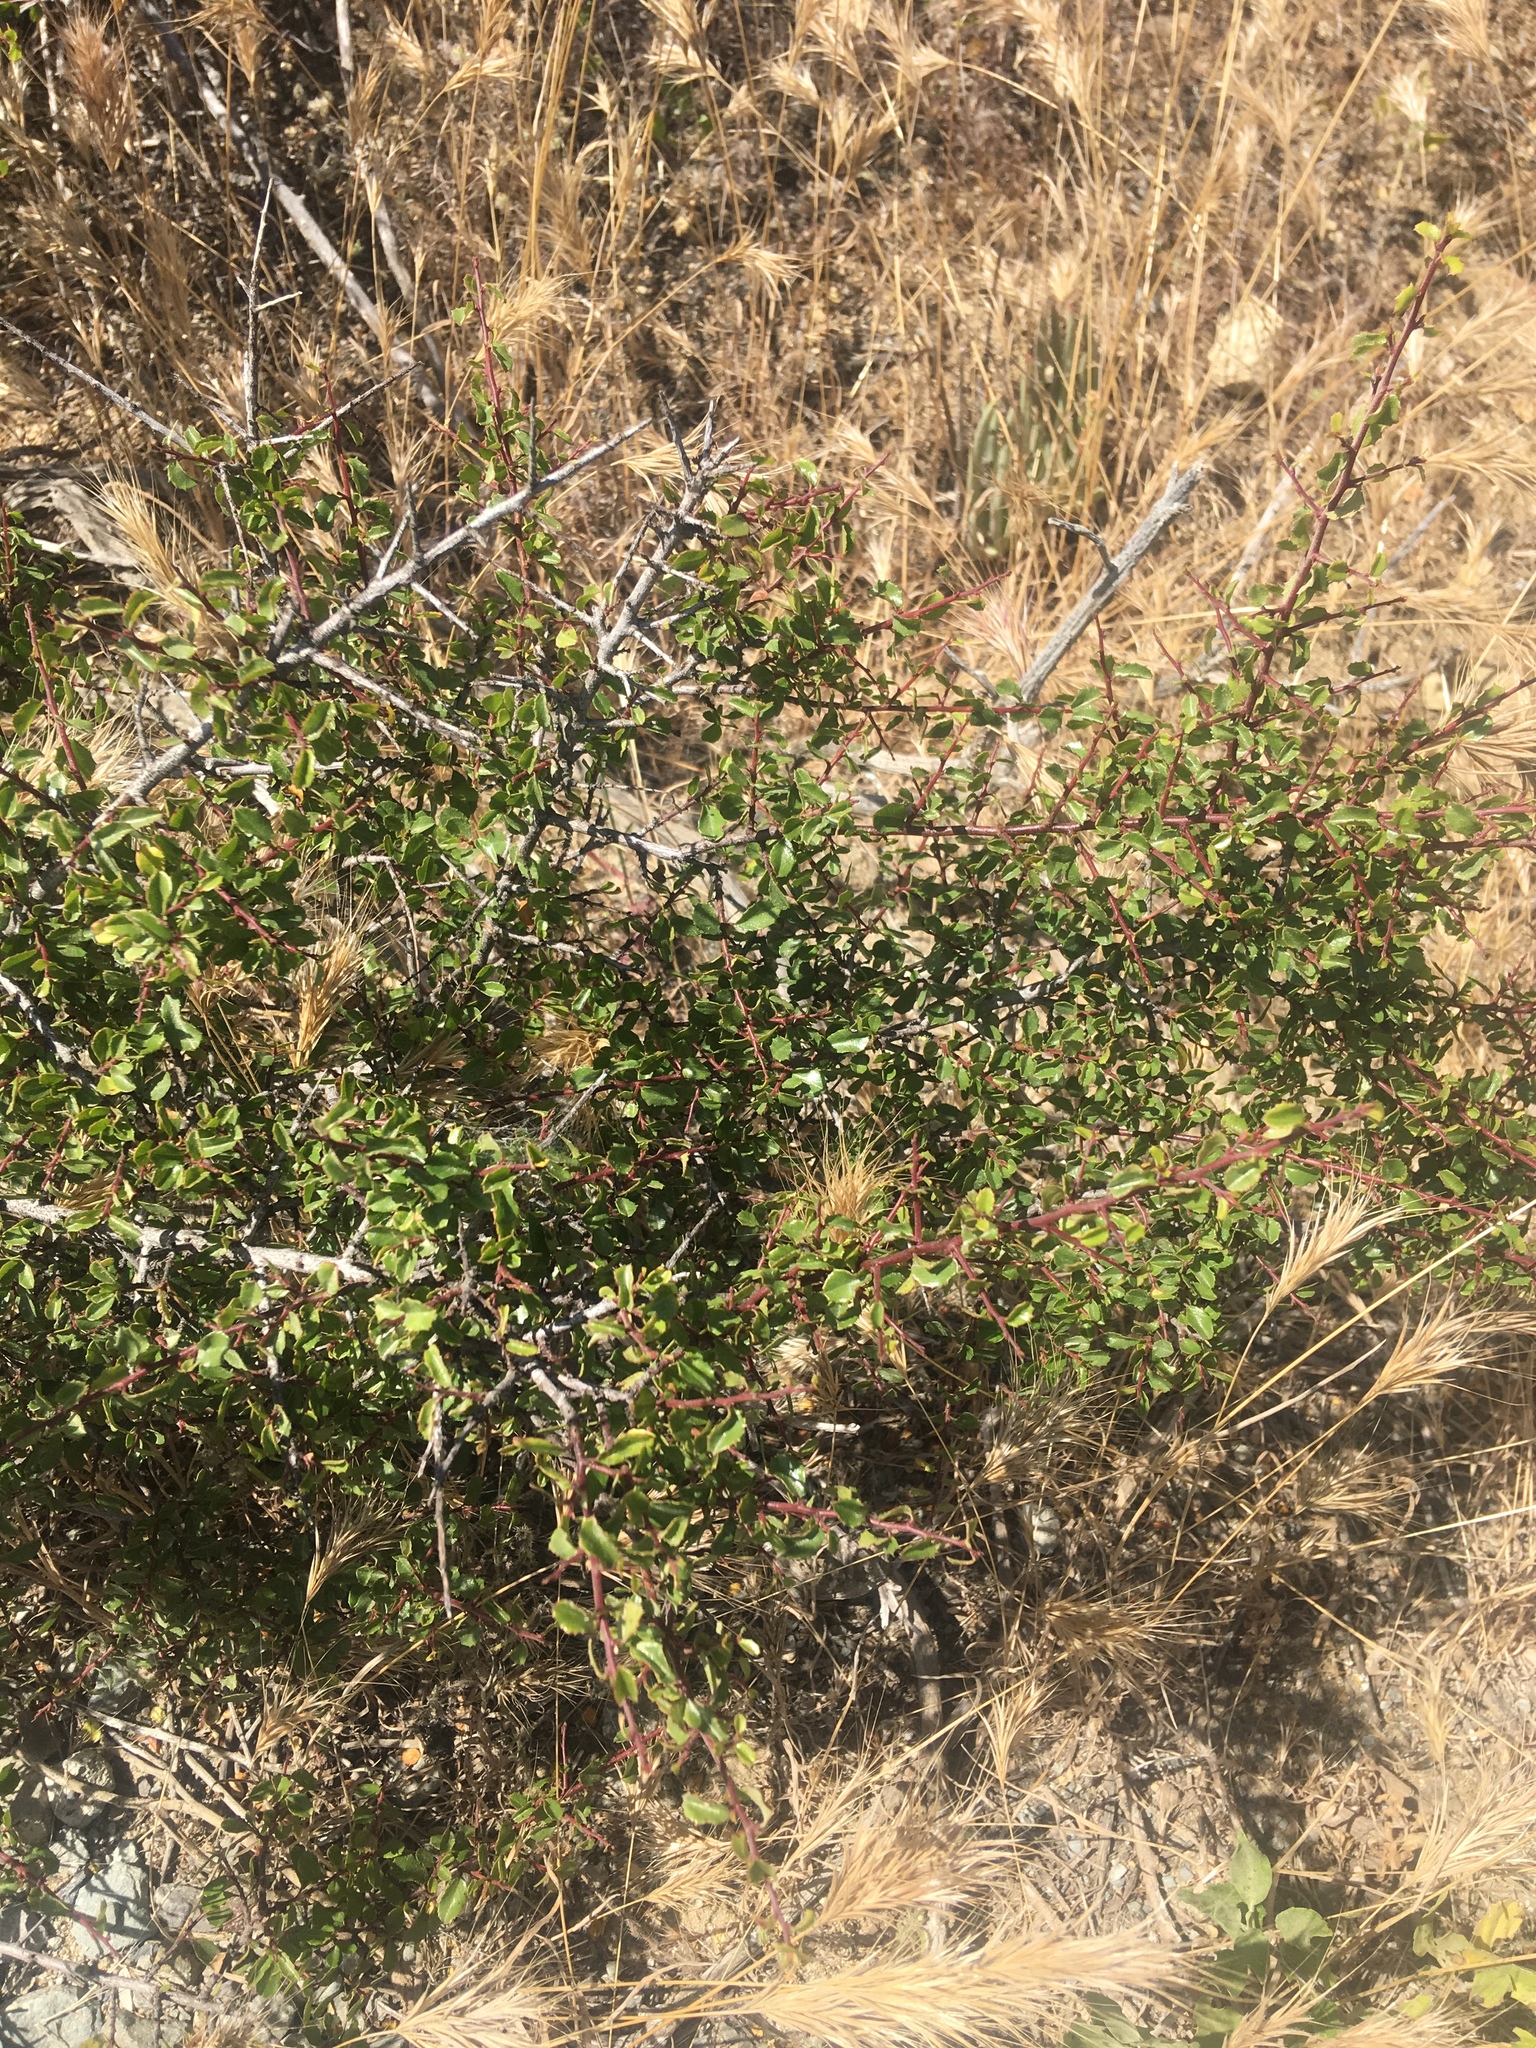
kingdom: Plantae
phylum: Tracheophyta
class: Magnoliopsida
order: Rosales
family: Rhamnaceae
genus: Endotropis
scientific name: Endotropis crocea
